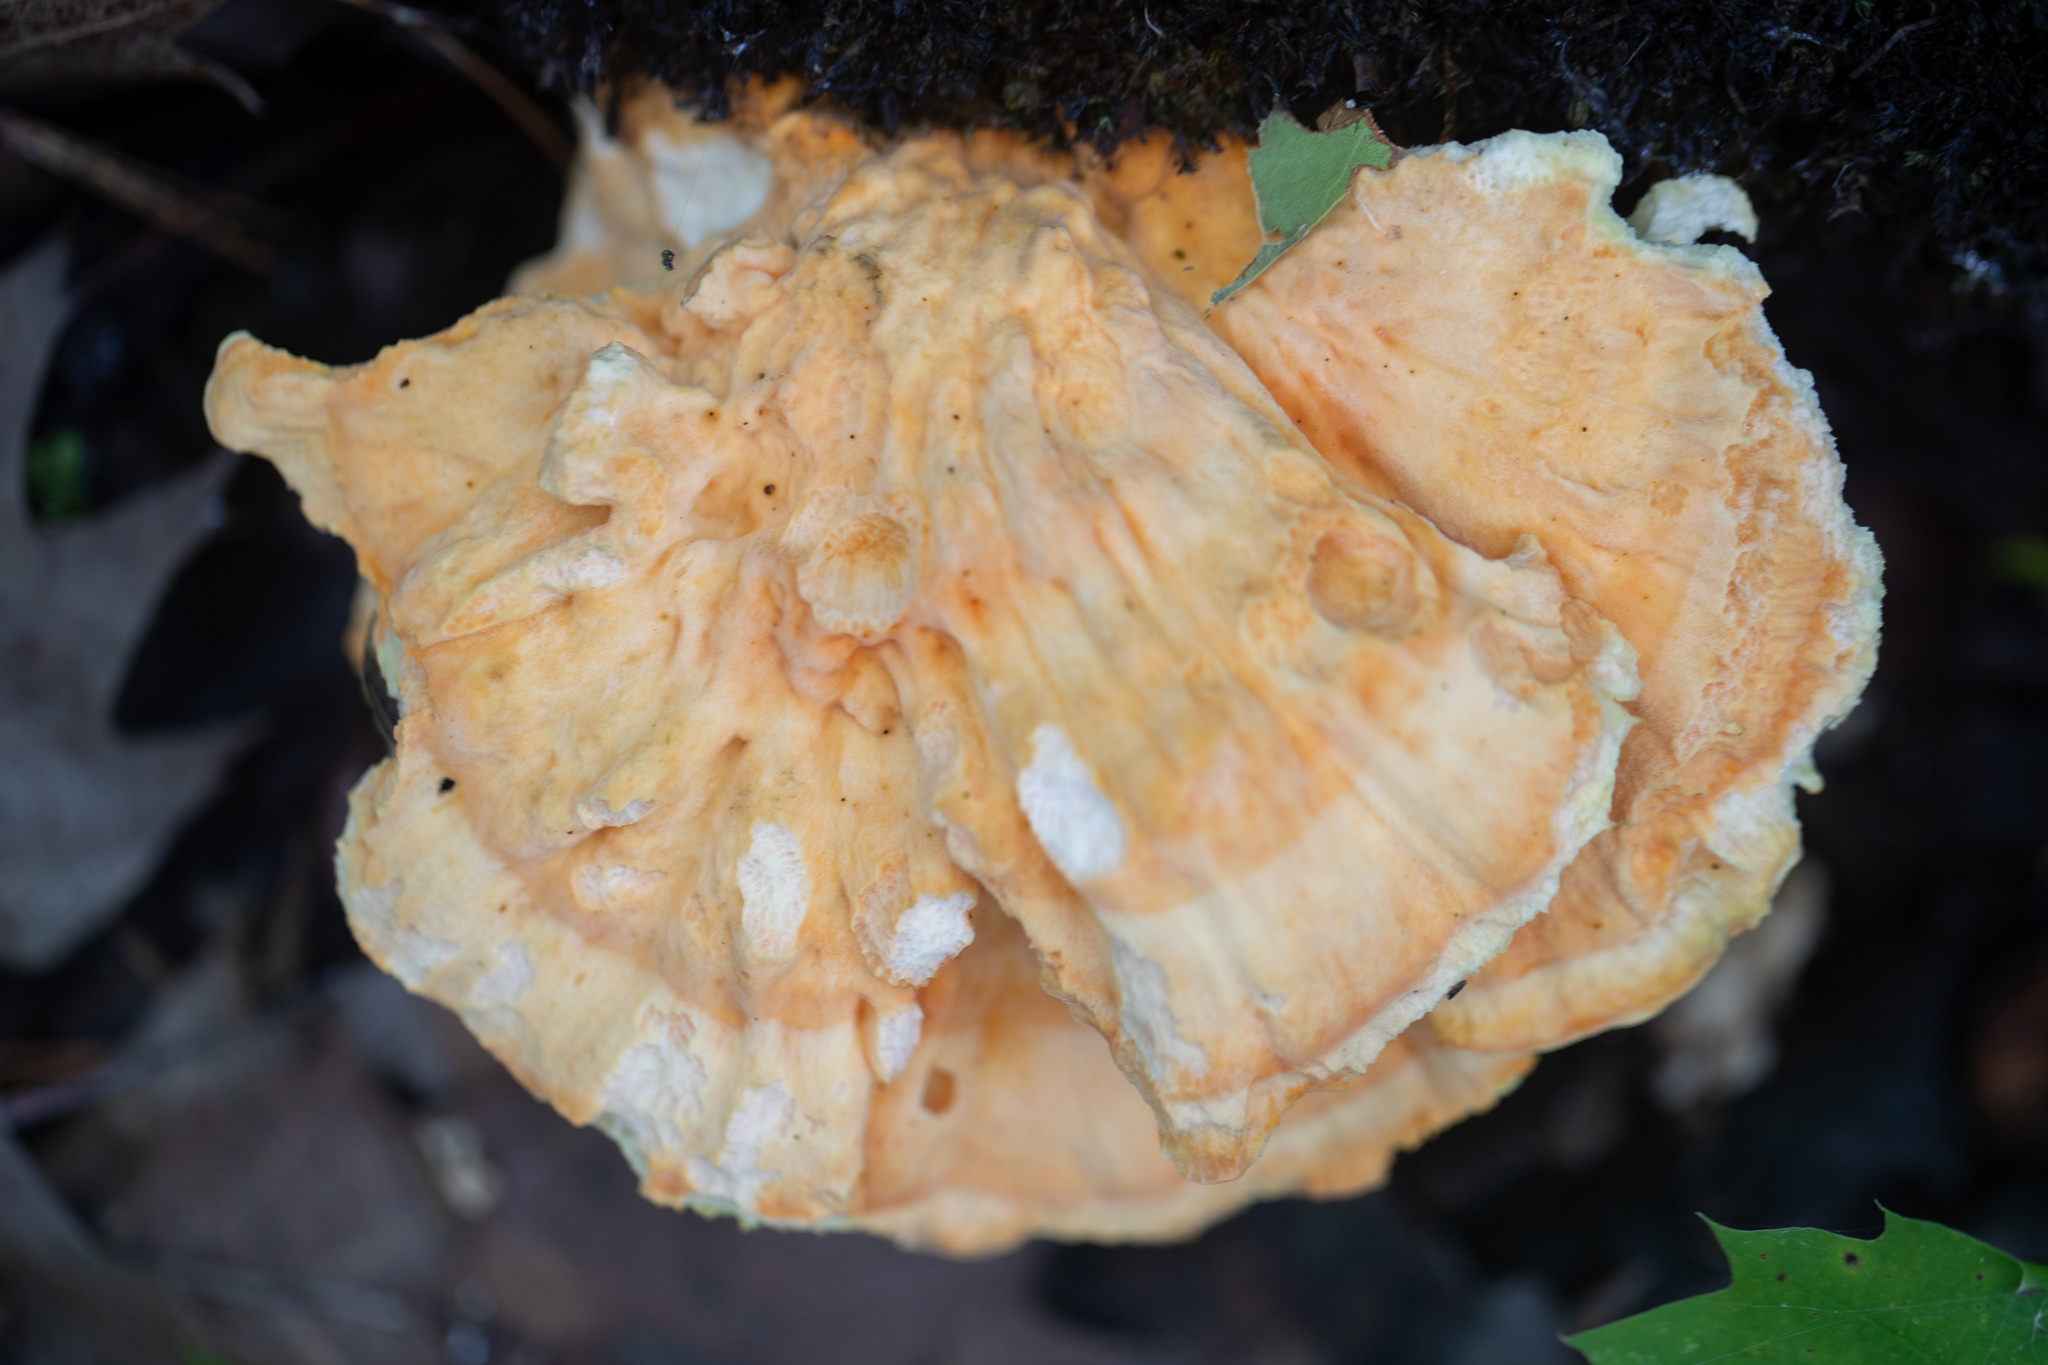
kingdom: Fungi
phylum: Basidiomycota
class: Agaricomycetes
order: Polyporales
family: Laetiporaceae
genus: Laetiporus
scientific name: Laetiporus sulphureus
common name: Chicken of the woods
